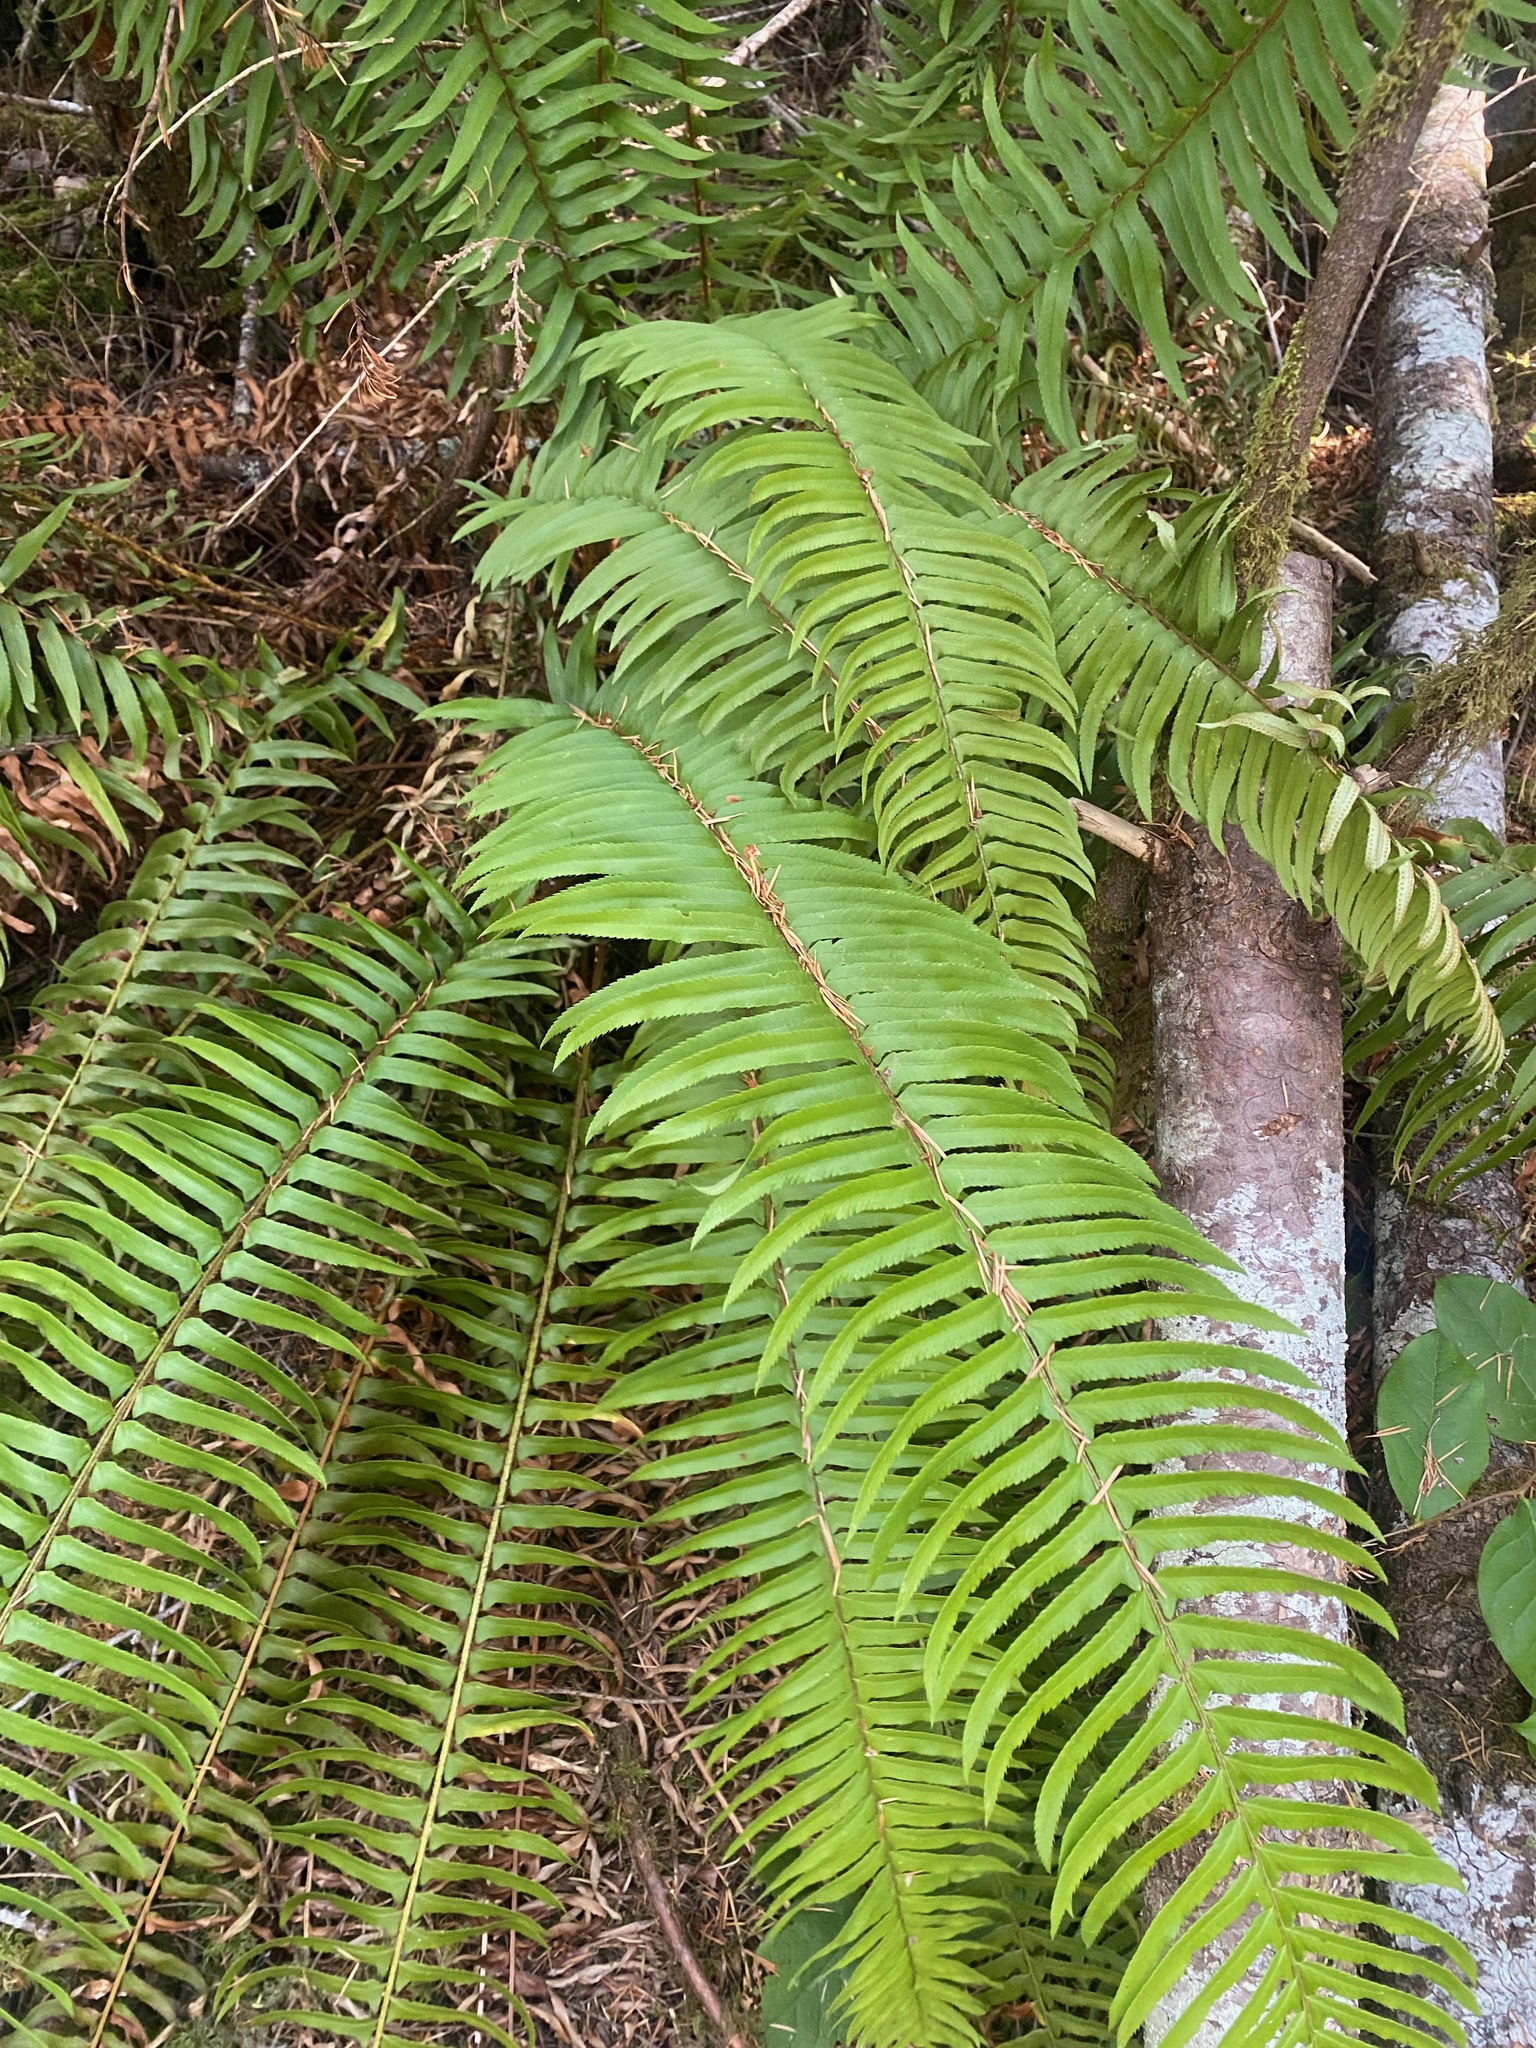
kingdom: Plantae
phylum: Tracheophyta
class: Polypodiopsida
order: Polypodiales
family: Dryopteridaceae
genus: Polystichum
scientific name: Polystichum munitum
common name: Western sword-fern
